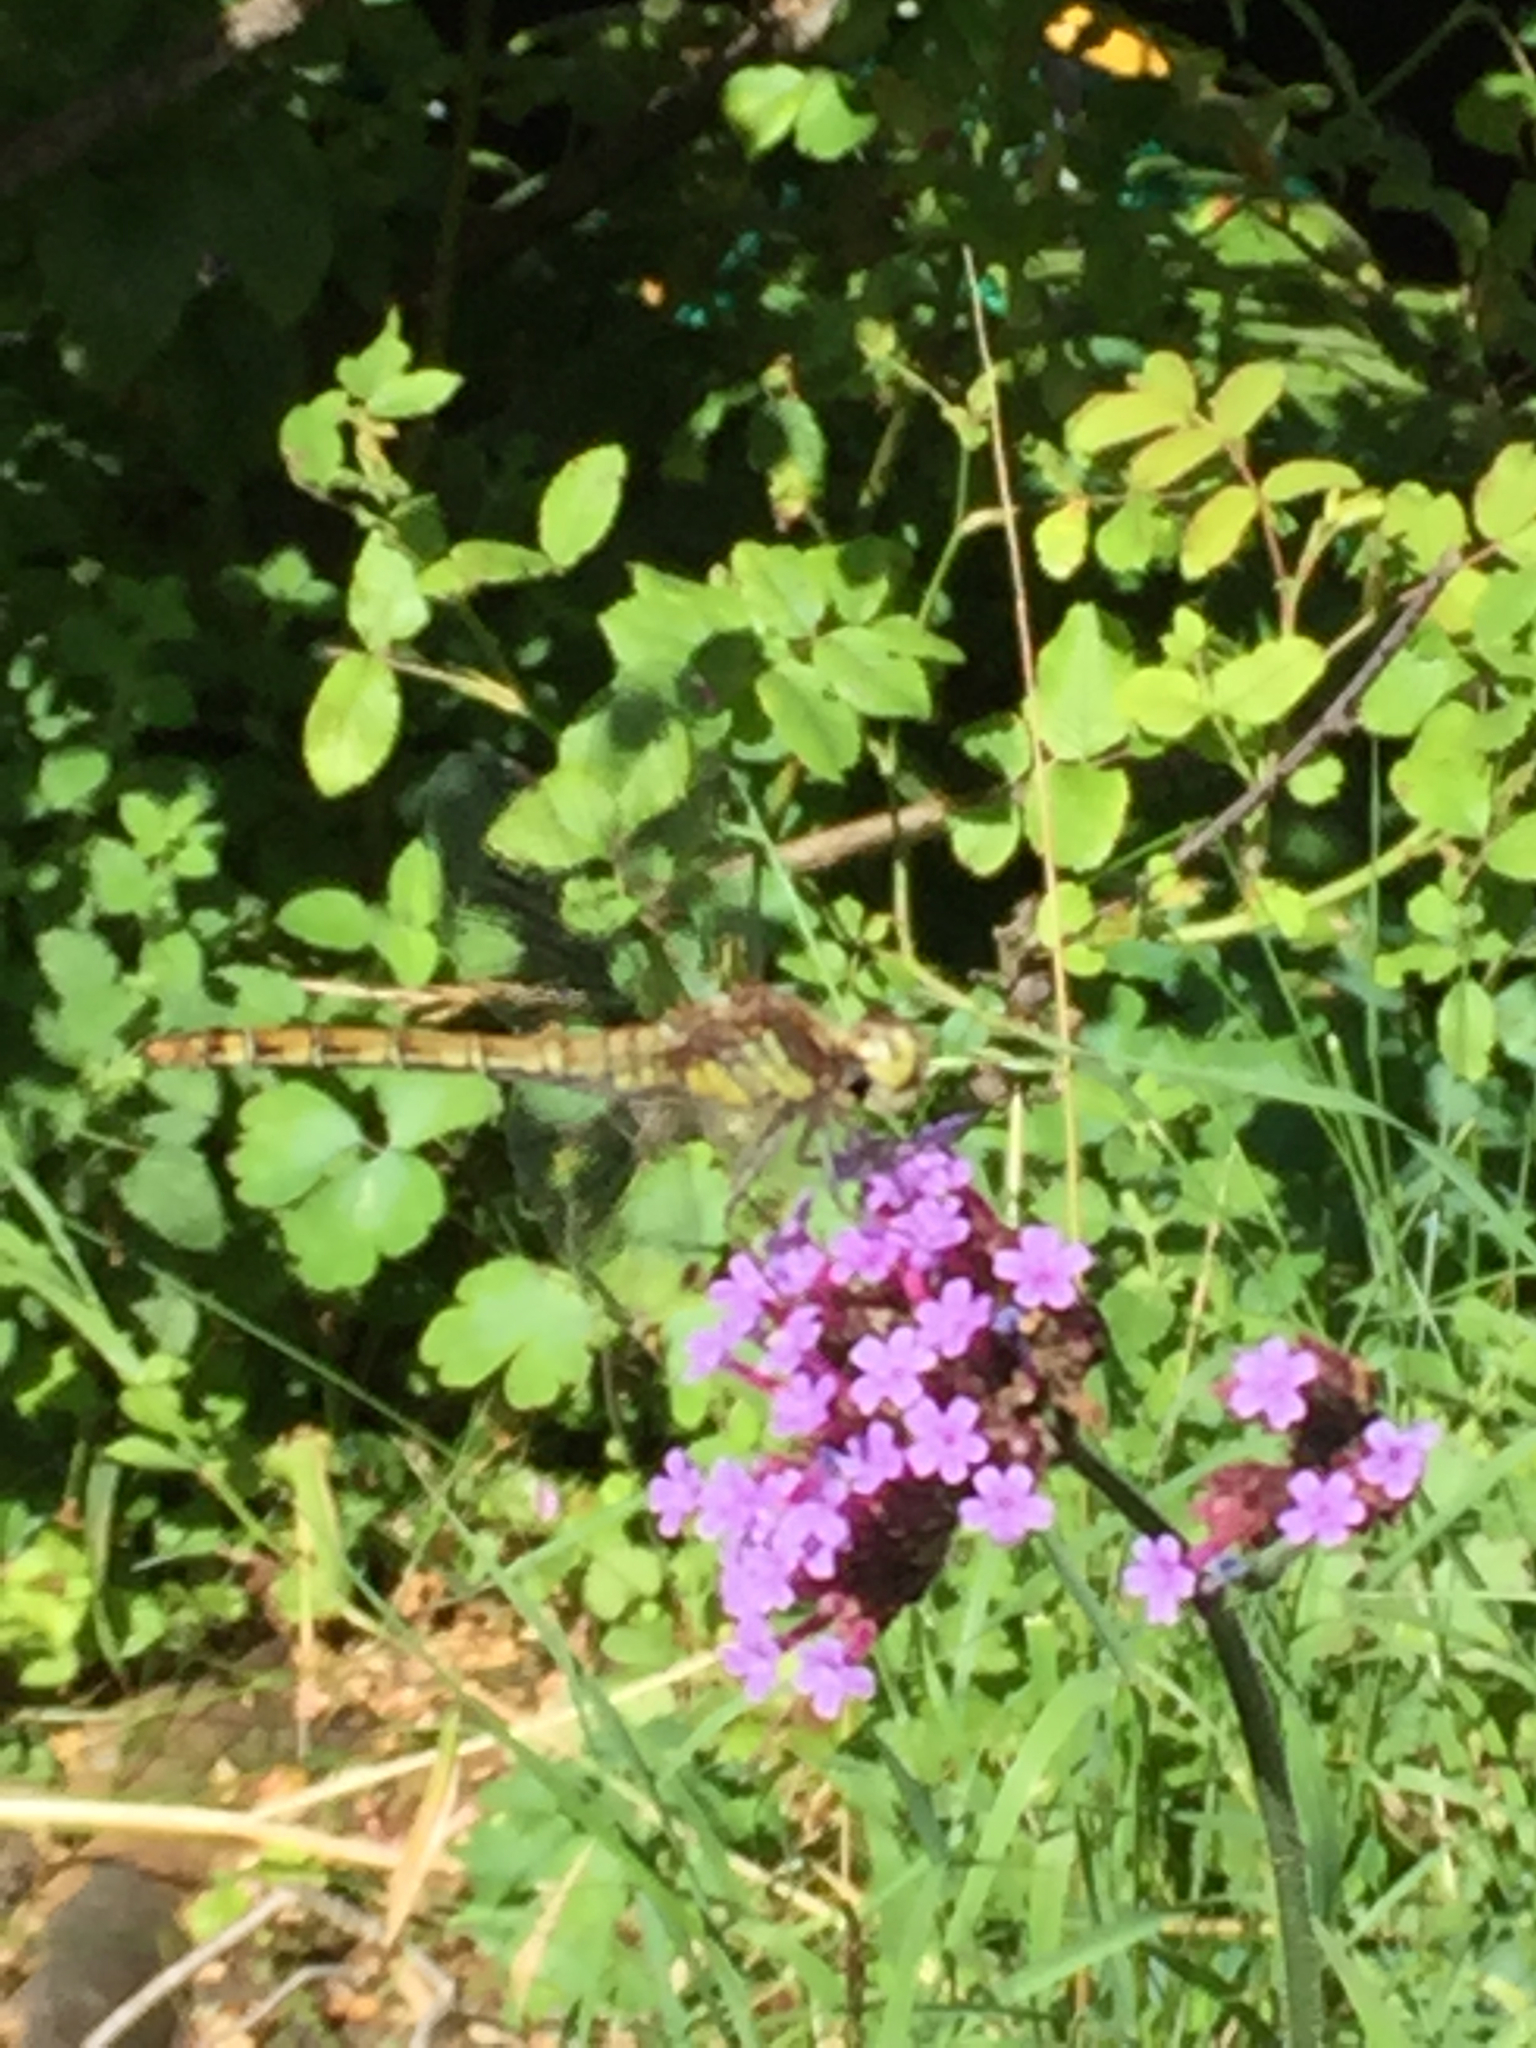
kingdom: Animalia
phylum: Arthropoda
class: Insecta
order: Odonata
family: Libellulidae
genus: Sympetrum
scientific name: Sympetrum striolatum
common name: Common darter
